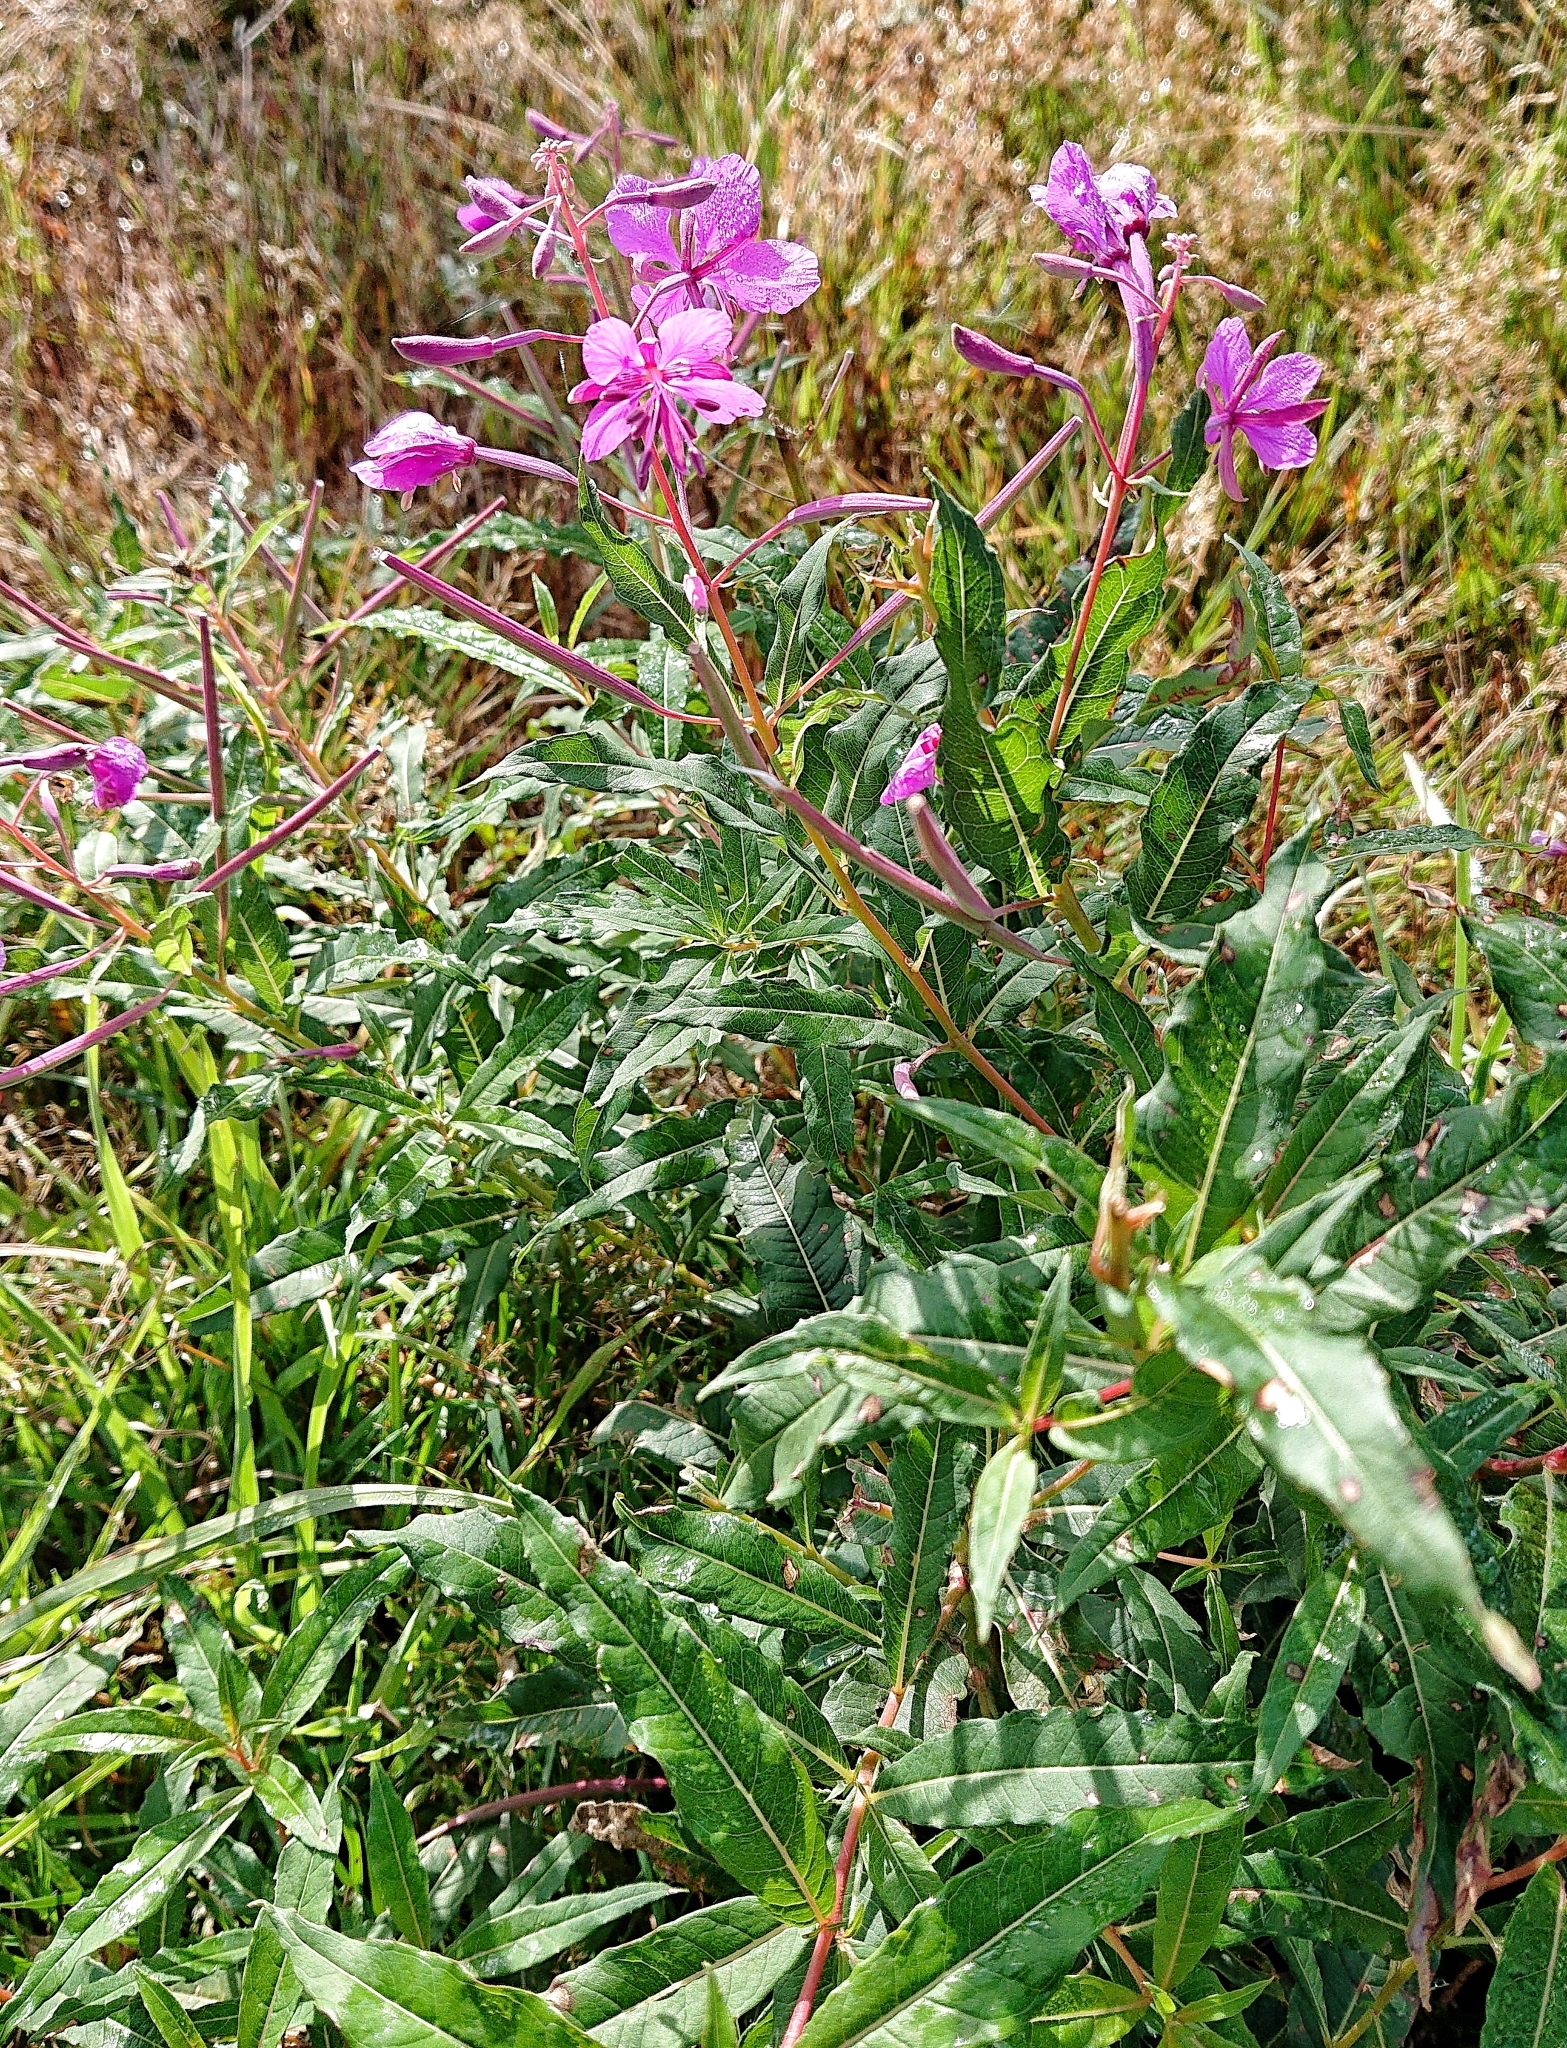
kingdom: Plantae
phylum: Tracheophyta
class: Magnoliopsida
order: Myrtales
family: Onagraceae
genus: Chamaenerion
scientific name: Chamaenerion angustifolium
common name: Fireweed
